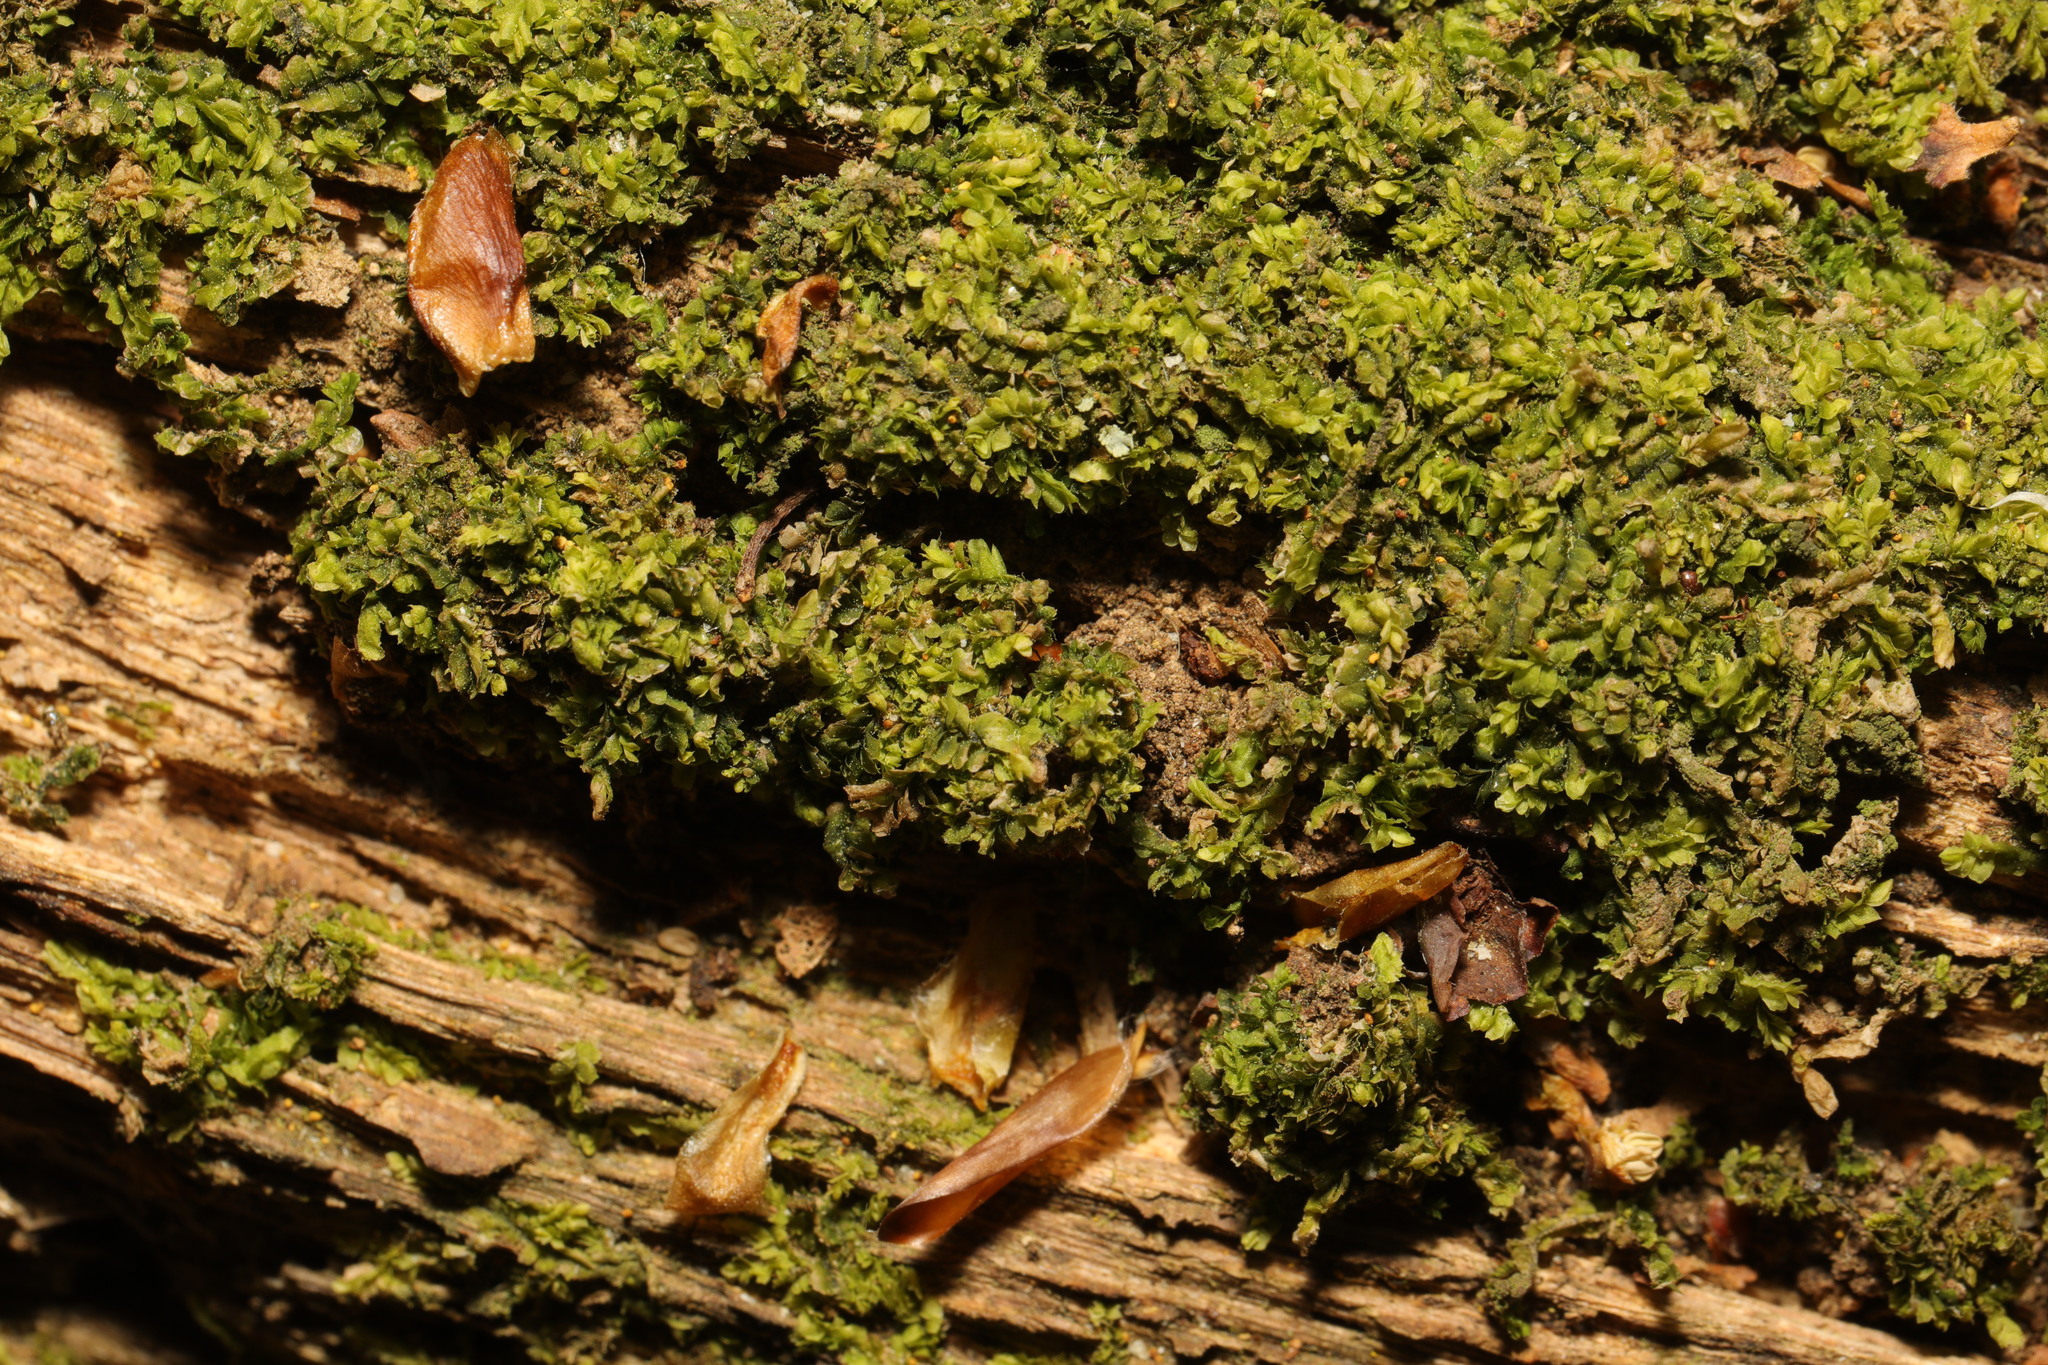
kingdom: Plantae
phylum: Marchantiophyta
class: Jungermanniopsida
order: Jungermanniales
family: Lophocoleaceae
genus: Lophocolea
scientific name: Lophocolea heterophylla
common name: Variable-leaved crestwort
